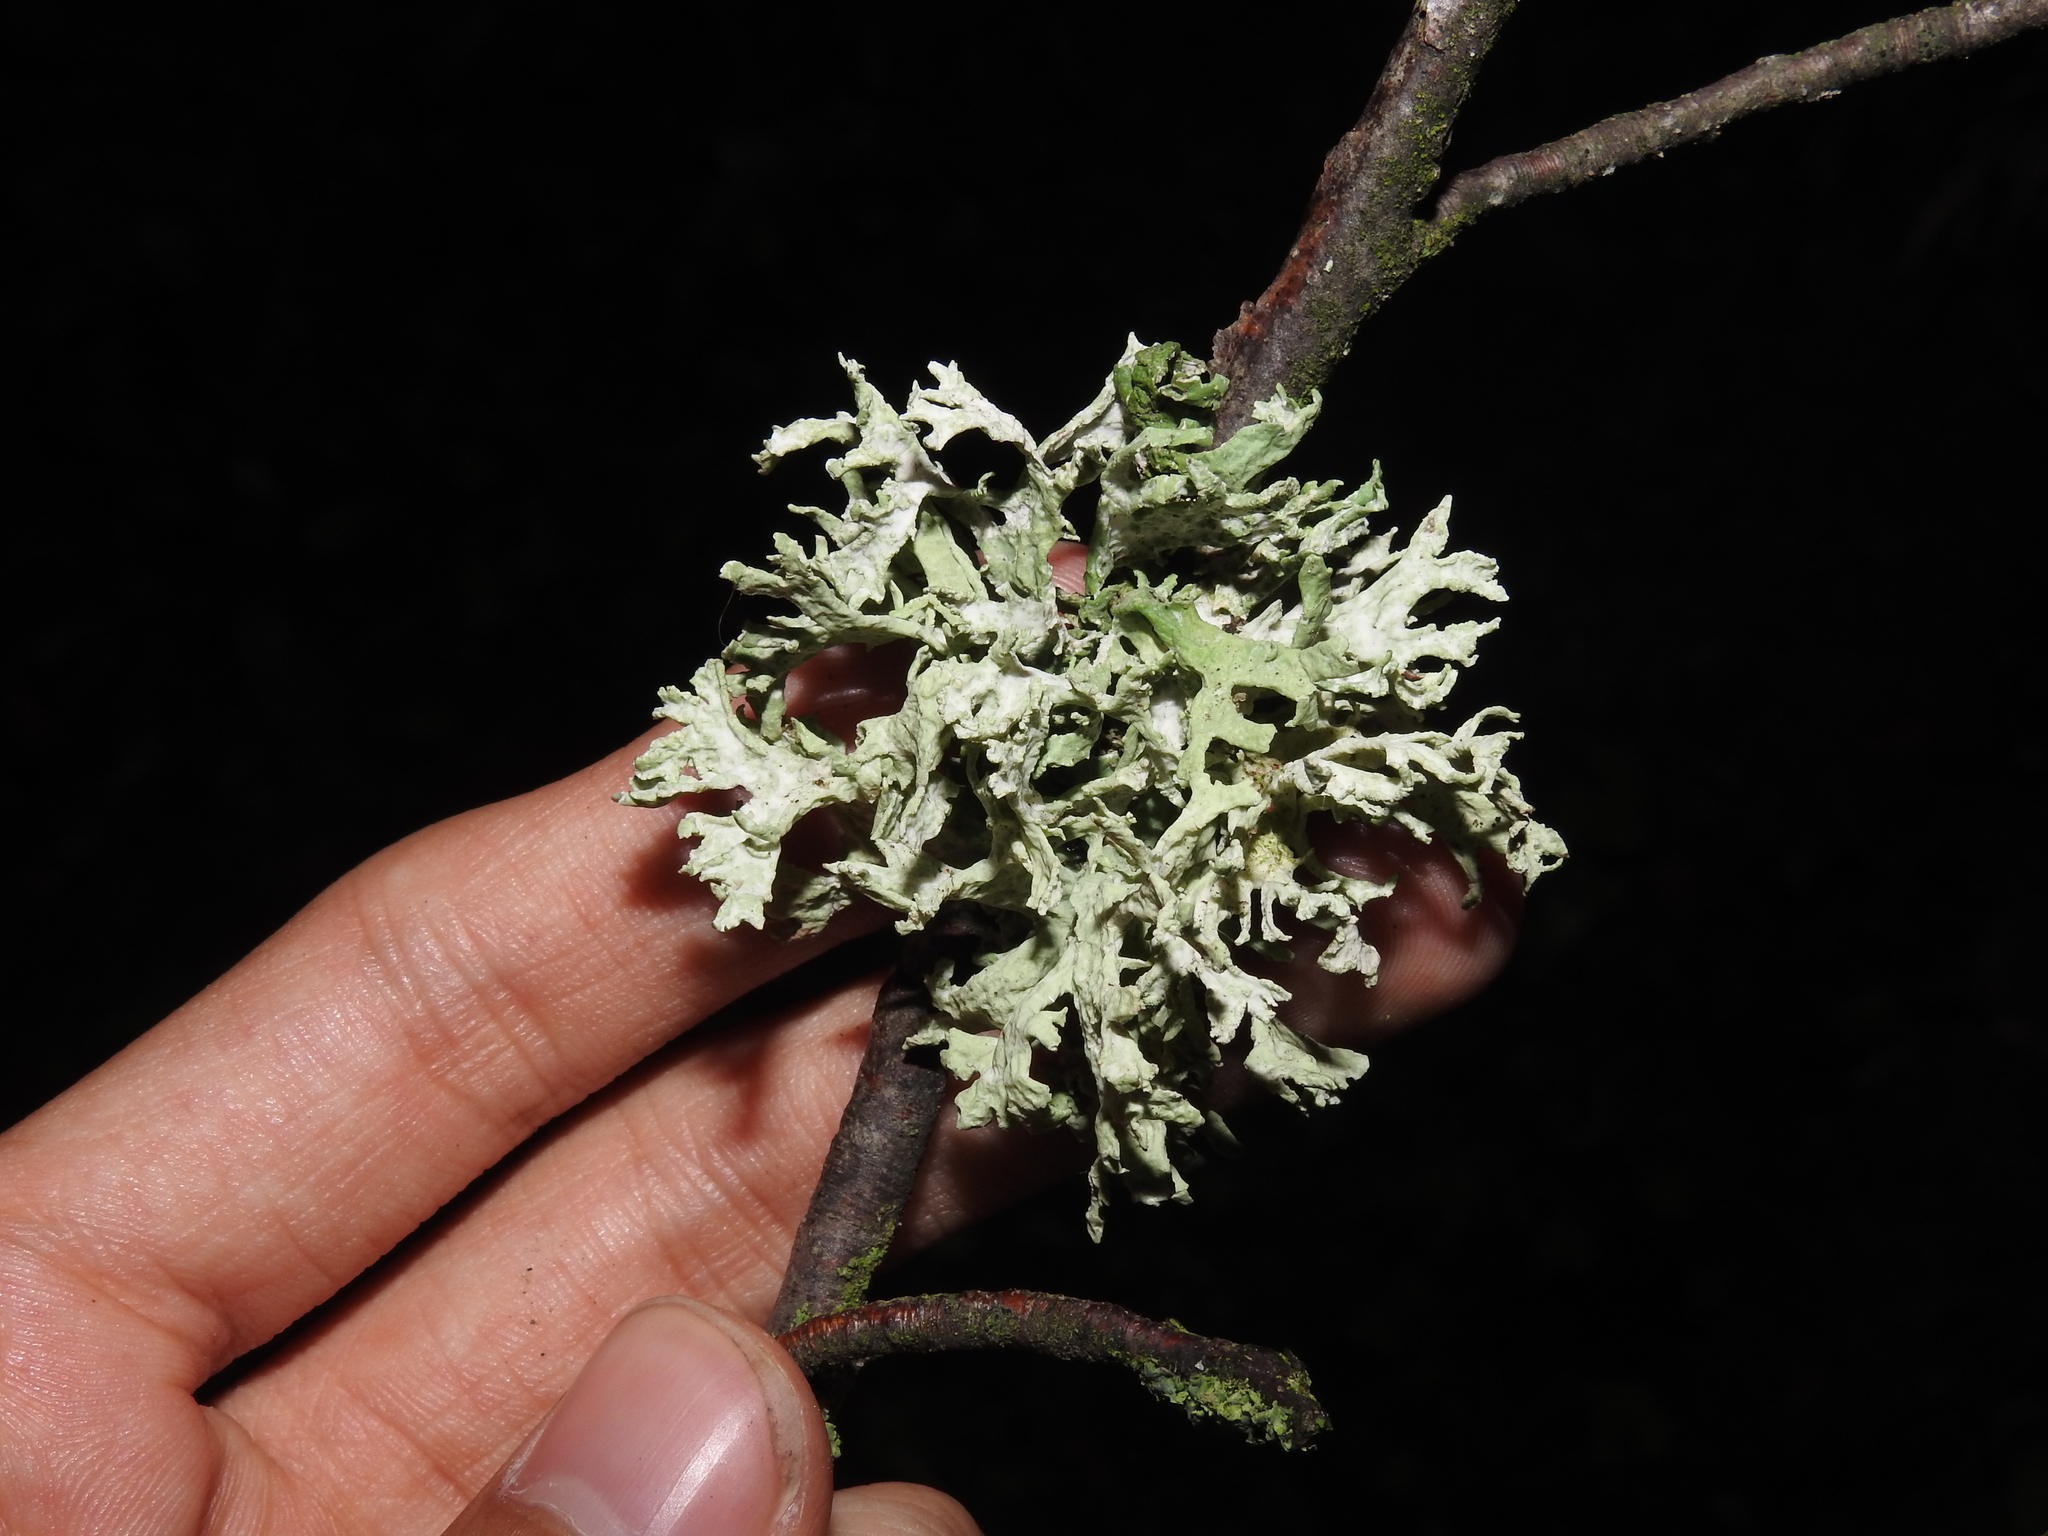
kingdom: Fungi
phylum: Ascomycota
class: Lecanoromycetes
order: Lecanorales
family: Parmeliaceae
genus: Evernia
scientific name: Evernia prunastri
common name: Oak moss
